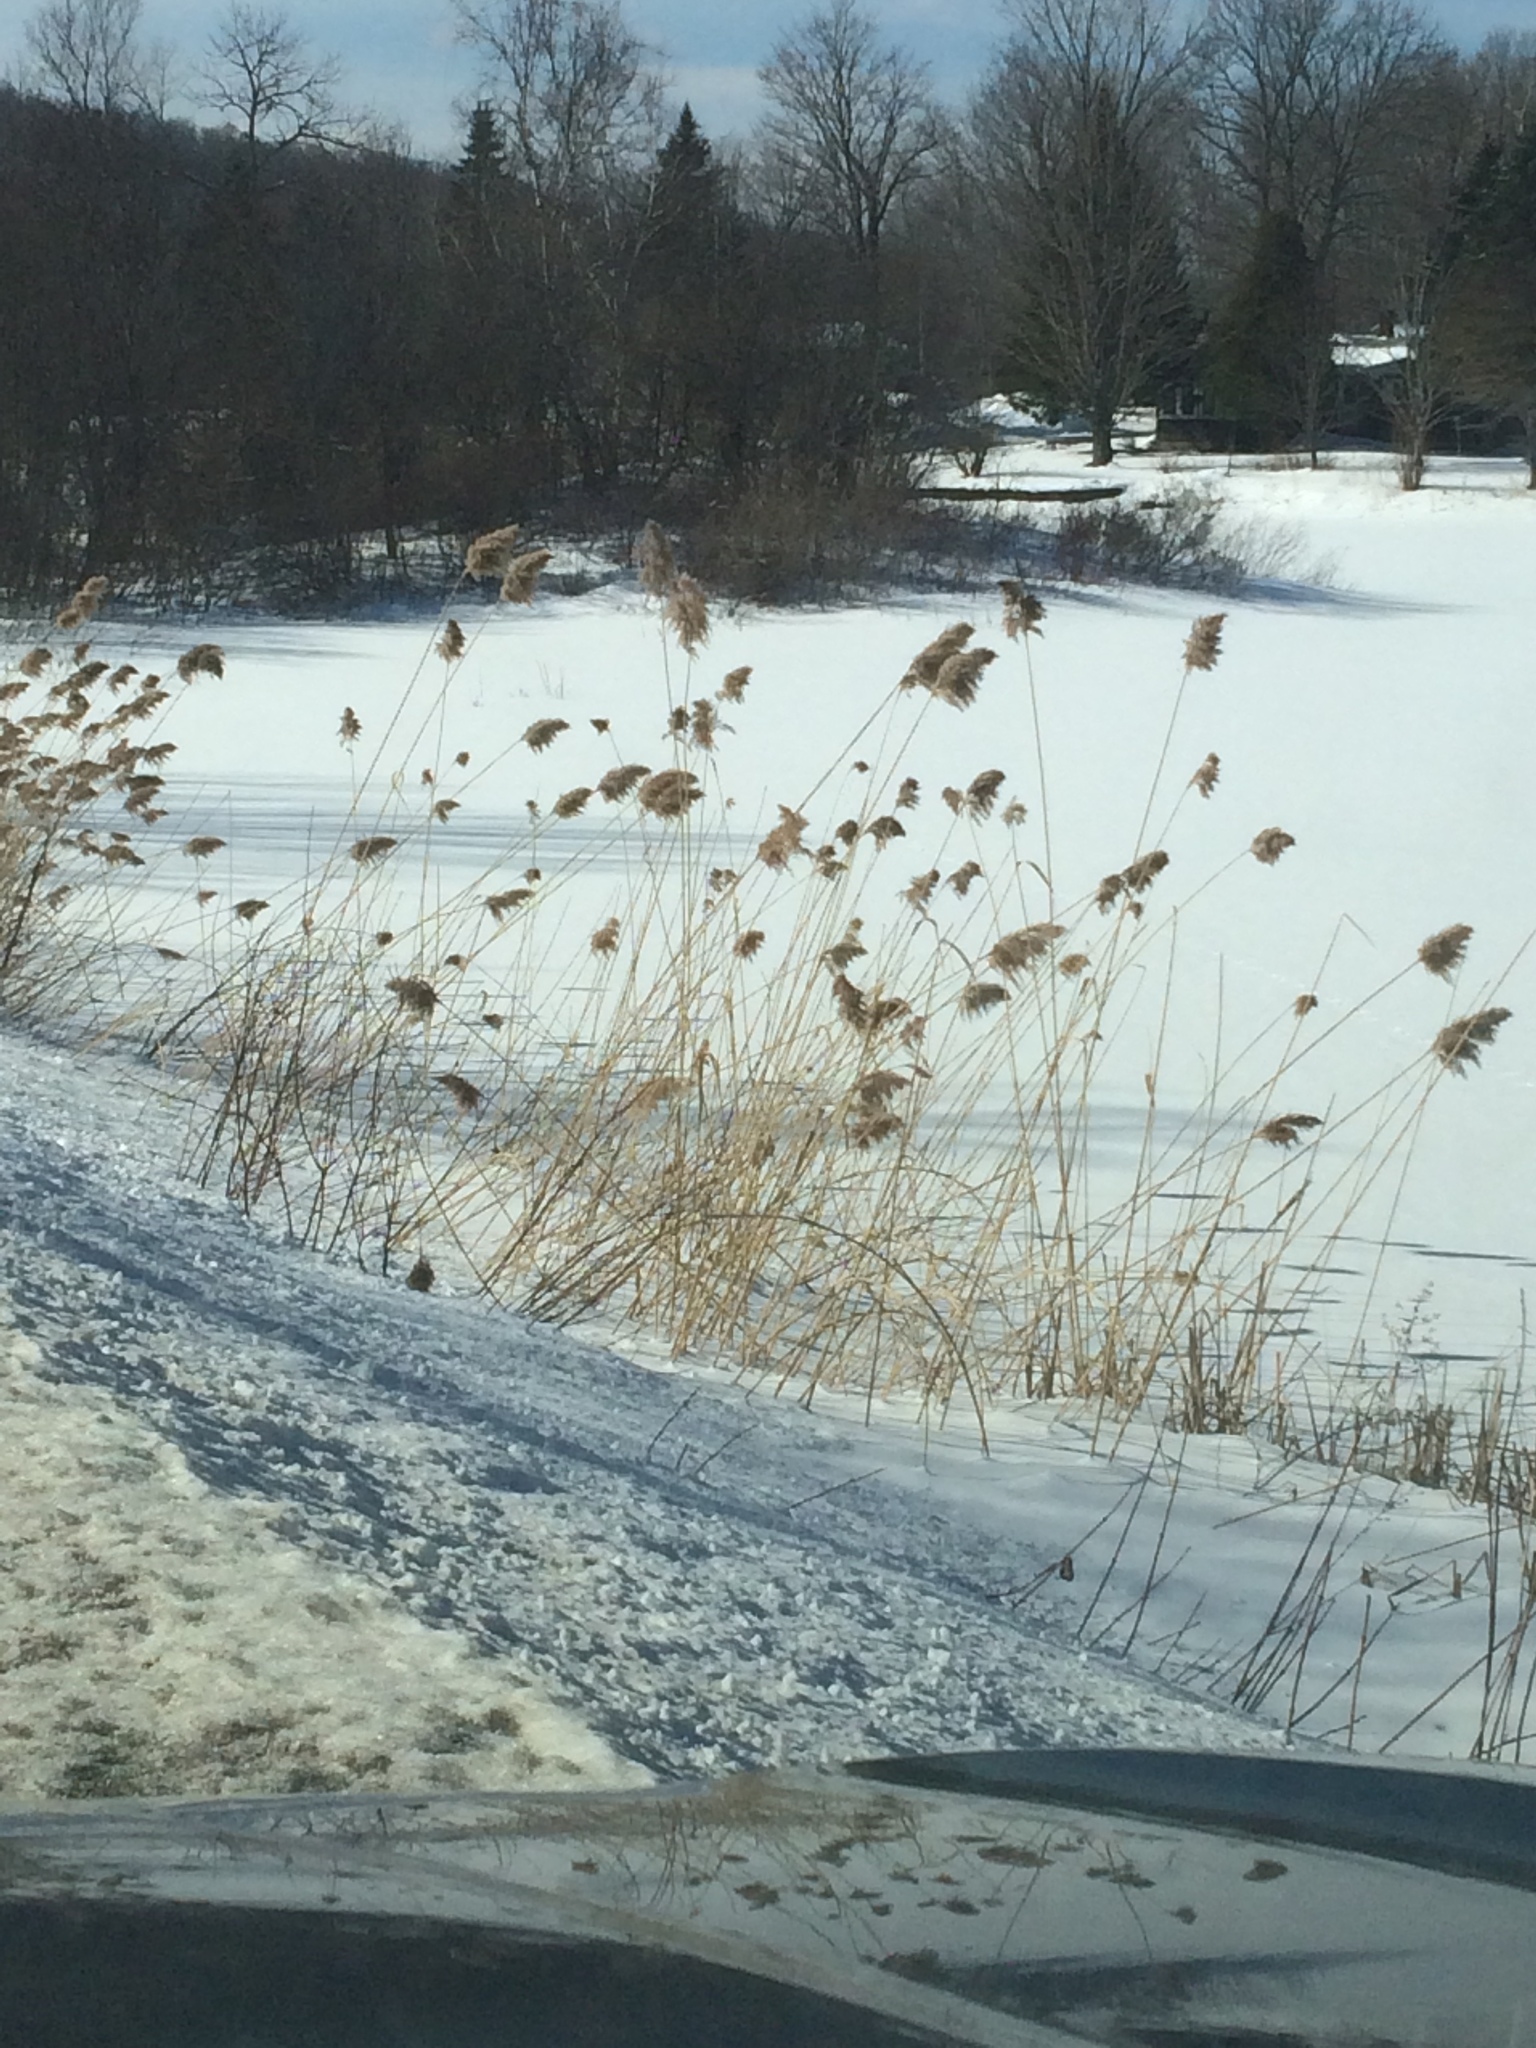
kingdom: Plantae
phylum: Tracheophyta
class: Liliopsida
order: Poales
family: Poaceae
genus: Phragmites
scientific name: Phragmites australis
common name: Common reed
